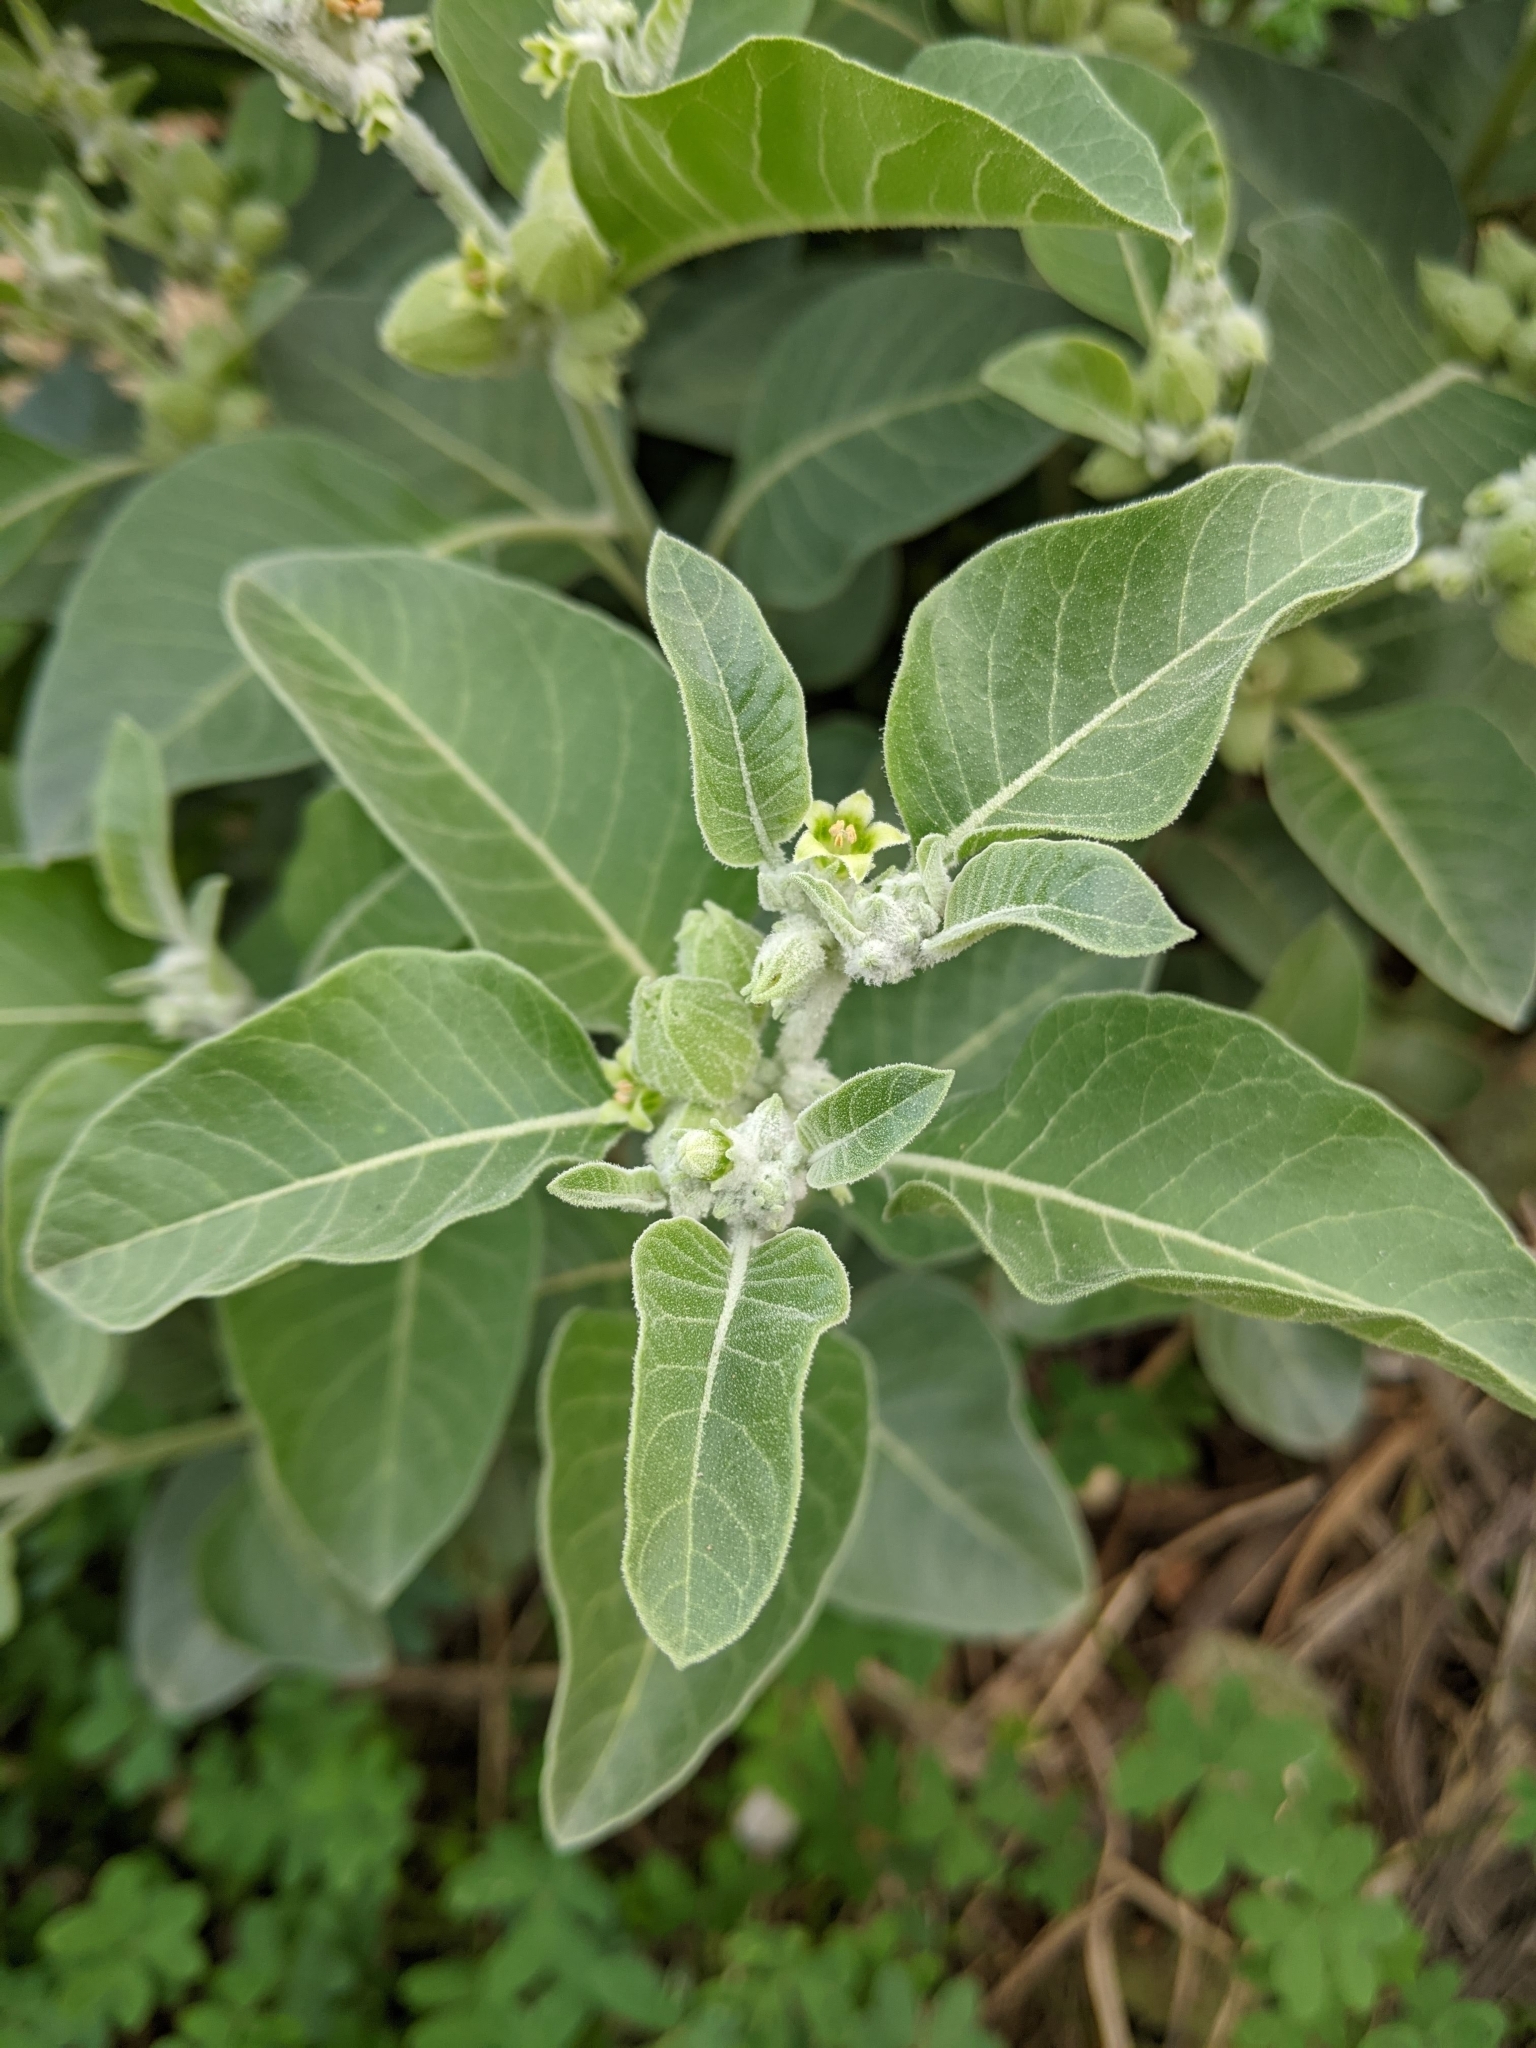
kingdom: Plantae
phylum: Tracheophyta
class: Magnoliopsida
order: Solanales
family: Solanaceae
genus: Withania
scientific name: Withania somnifera
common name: Winter-cherry
